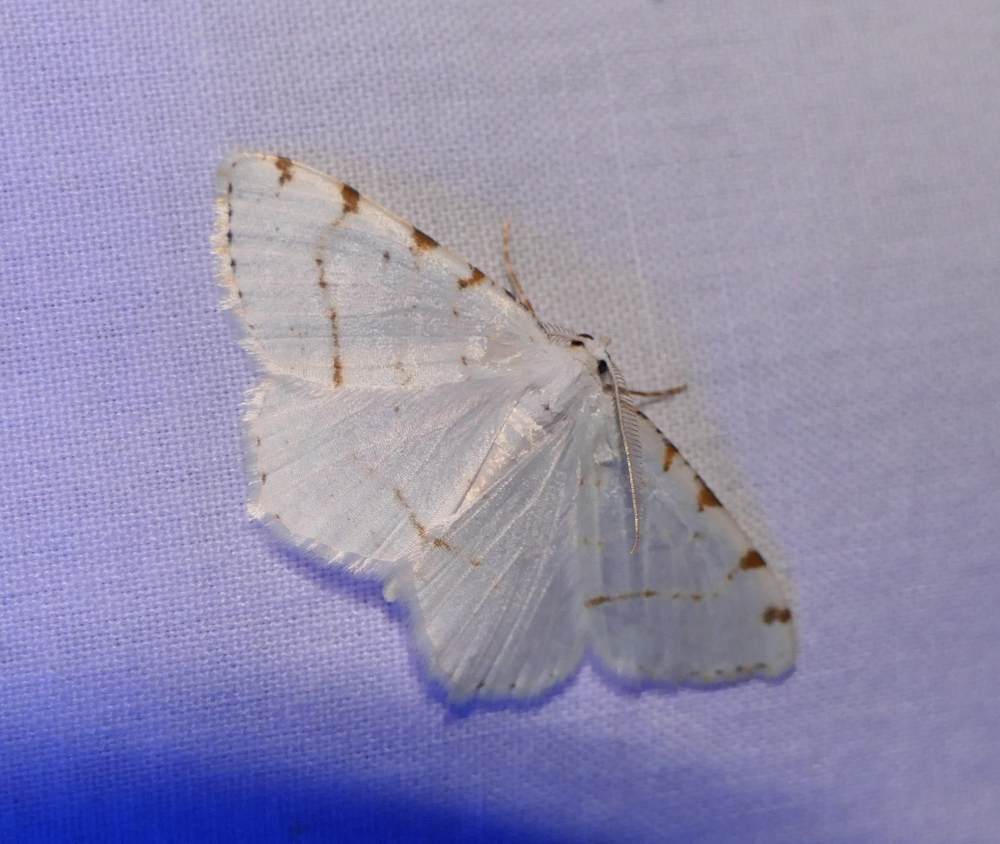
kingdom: Animalia
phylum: Arthropoda
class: Insecta
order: Lepidoptera
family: Geometridae
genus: Macaria
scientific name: Macaria pustularia
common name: Lesser maple spanworm moth
